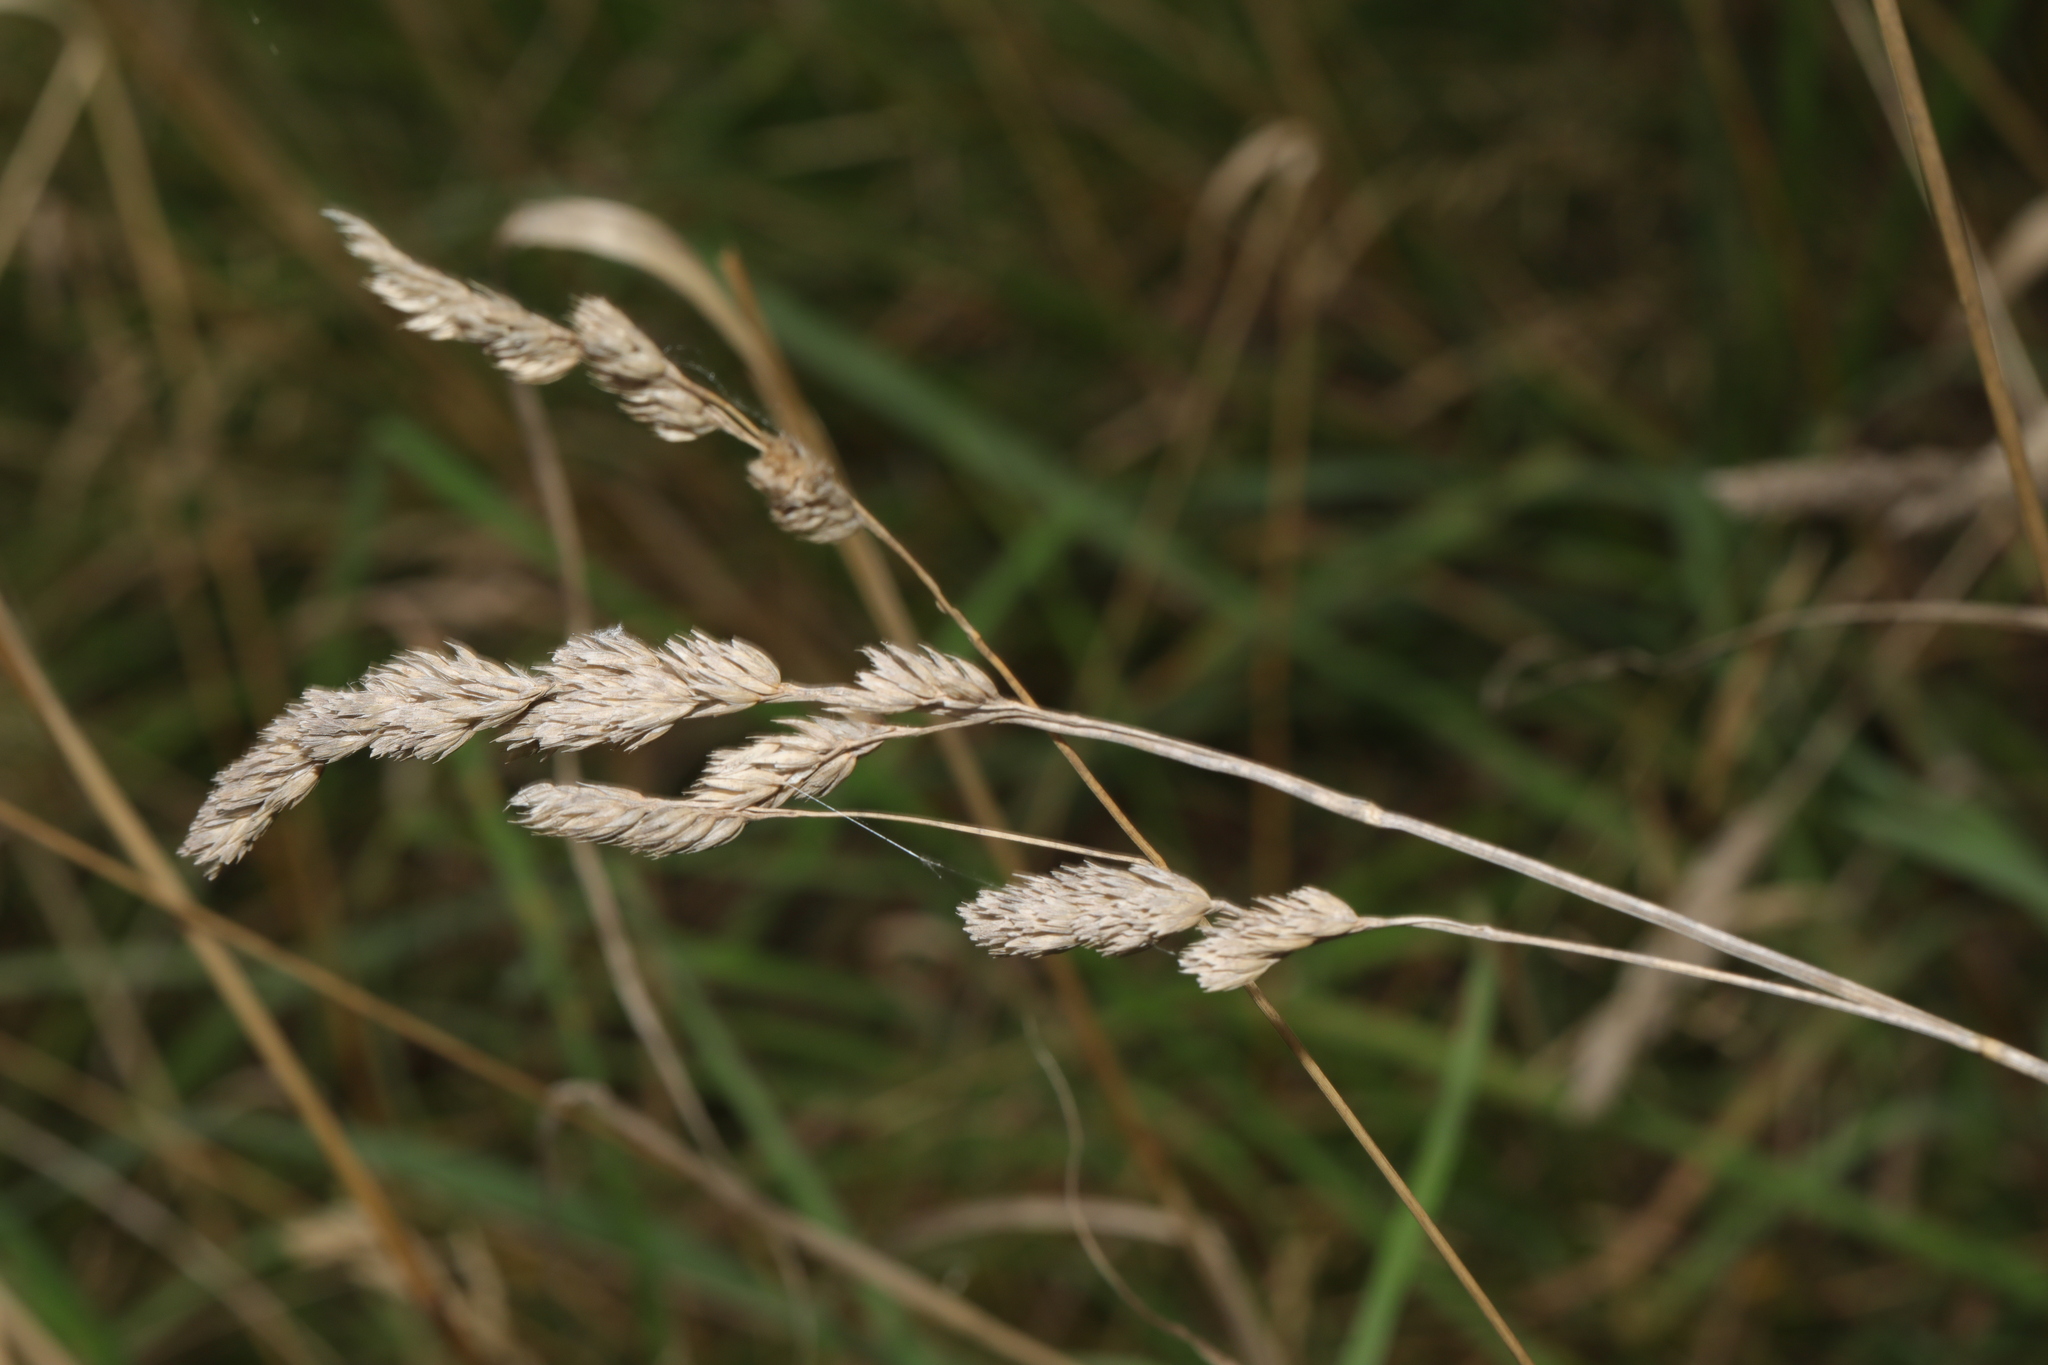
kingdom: Plantae
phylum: Tracheophyta
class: Liliopsida
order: Poales
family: Poaceae
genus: Dactylis
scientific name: Dactylis glomerata
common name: Orchardgrass
